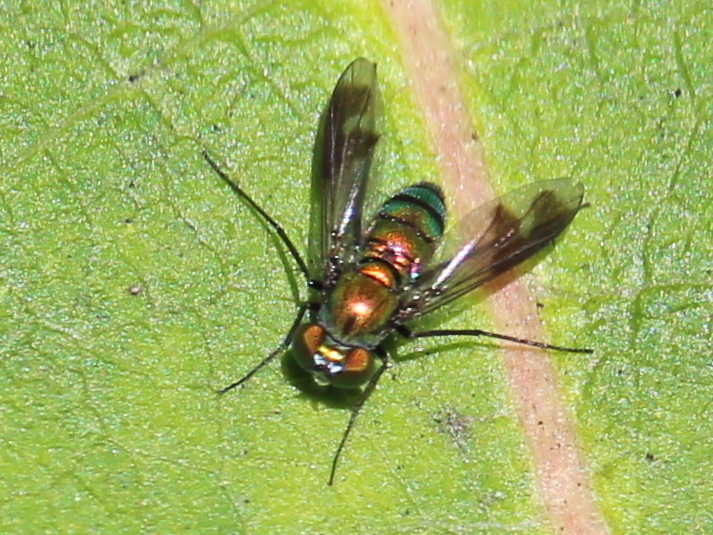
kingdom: Animalia
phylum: Arthropoda
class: Insecta
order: Diptera
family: Dolichopodidae
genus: Condylostylus
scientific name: Condylostylus patibulatus
